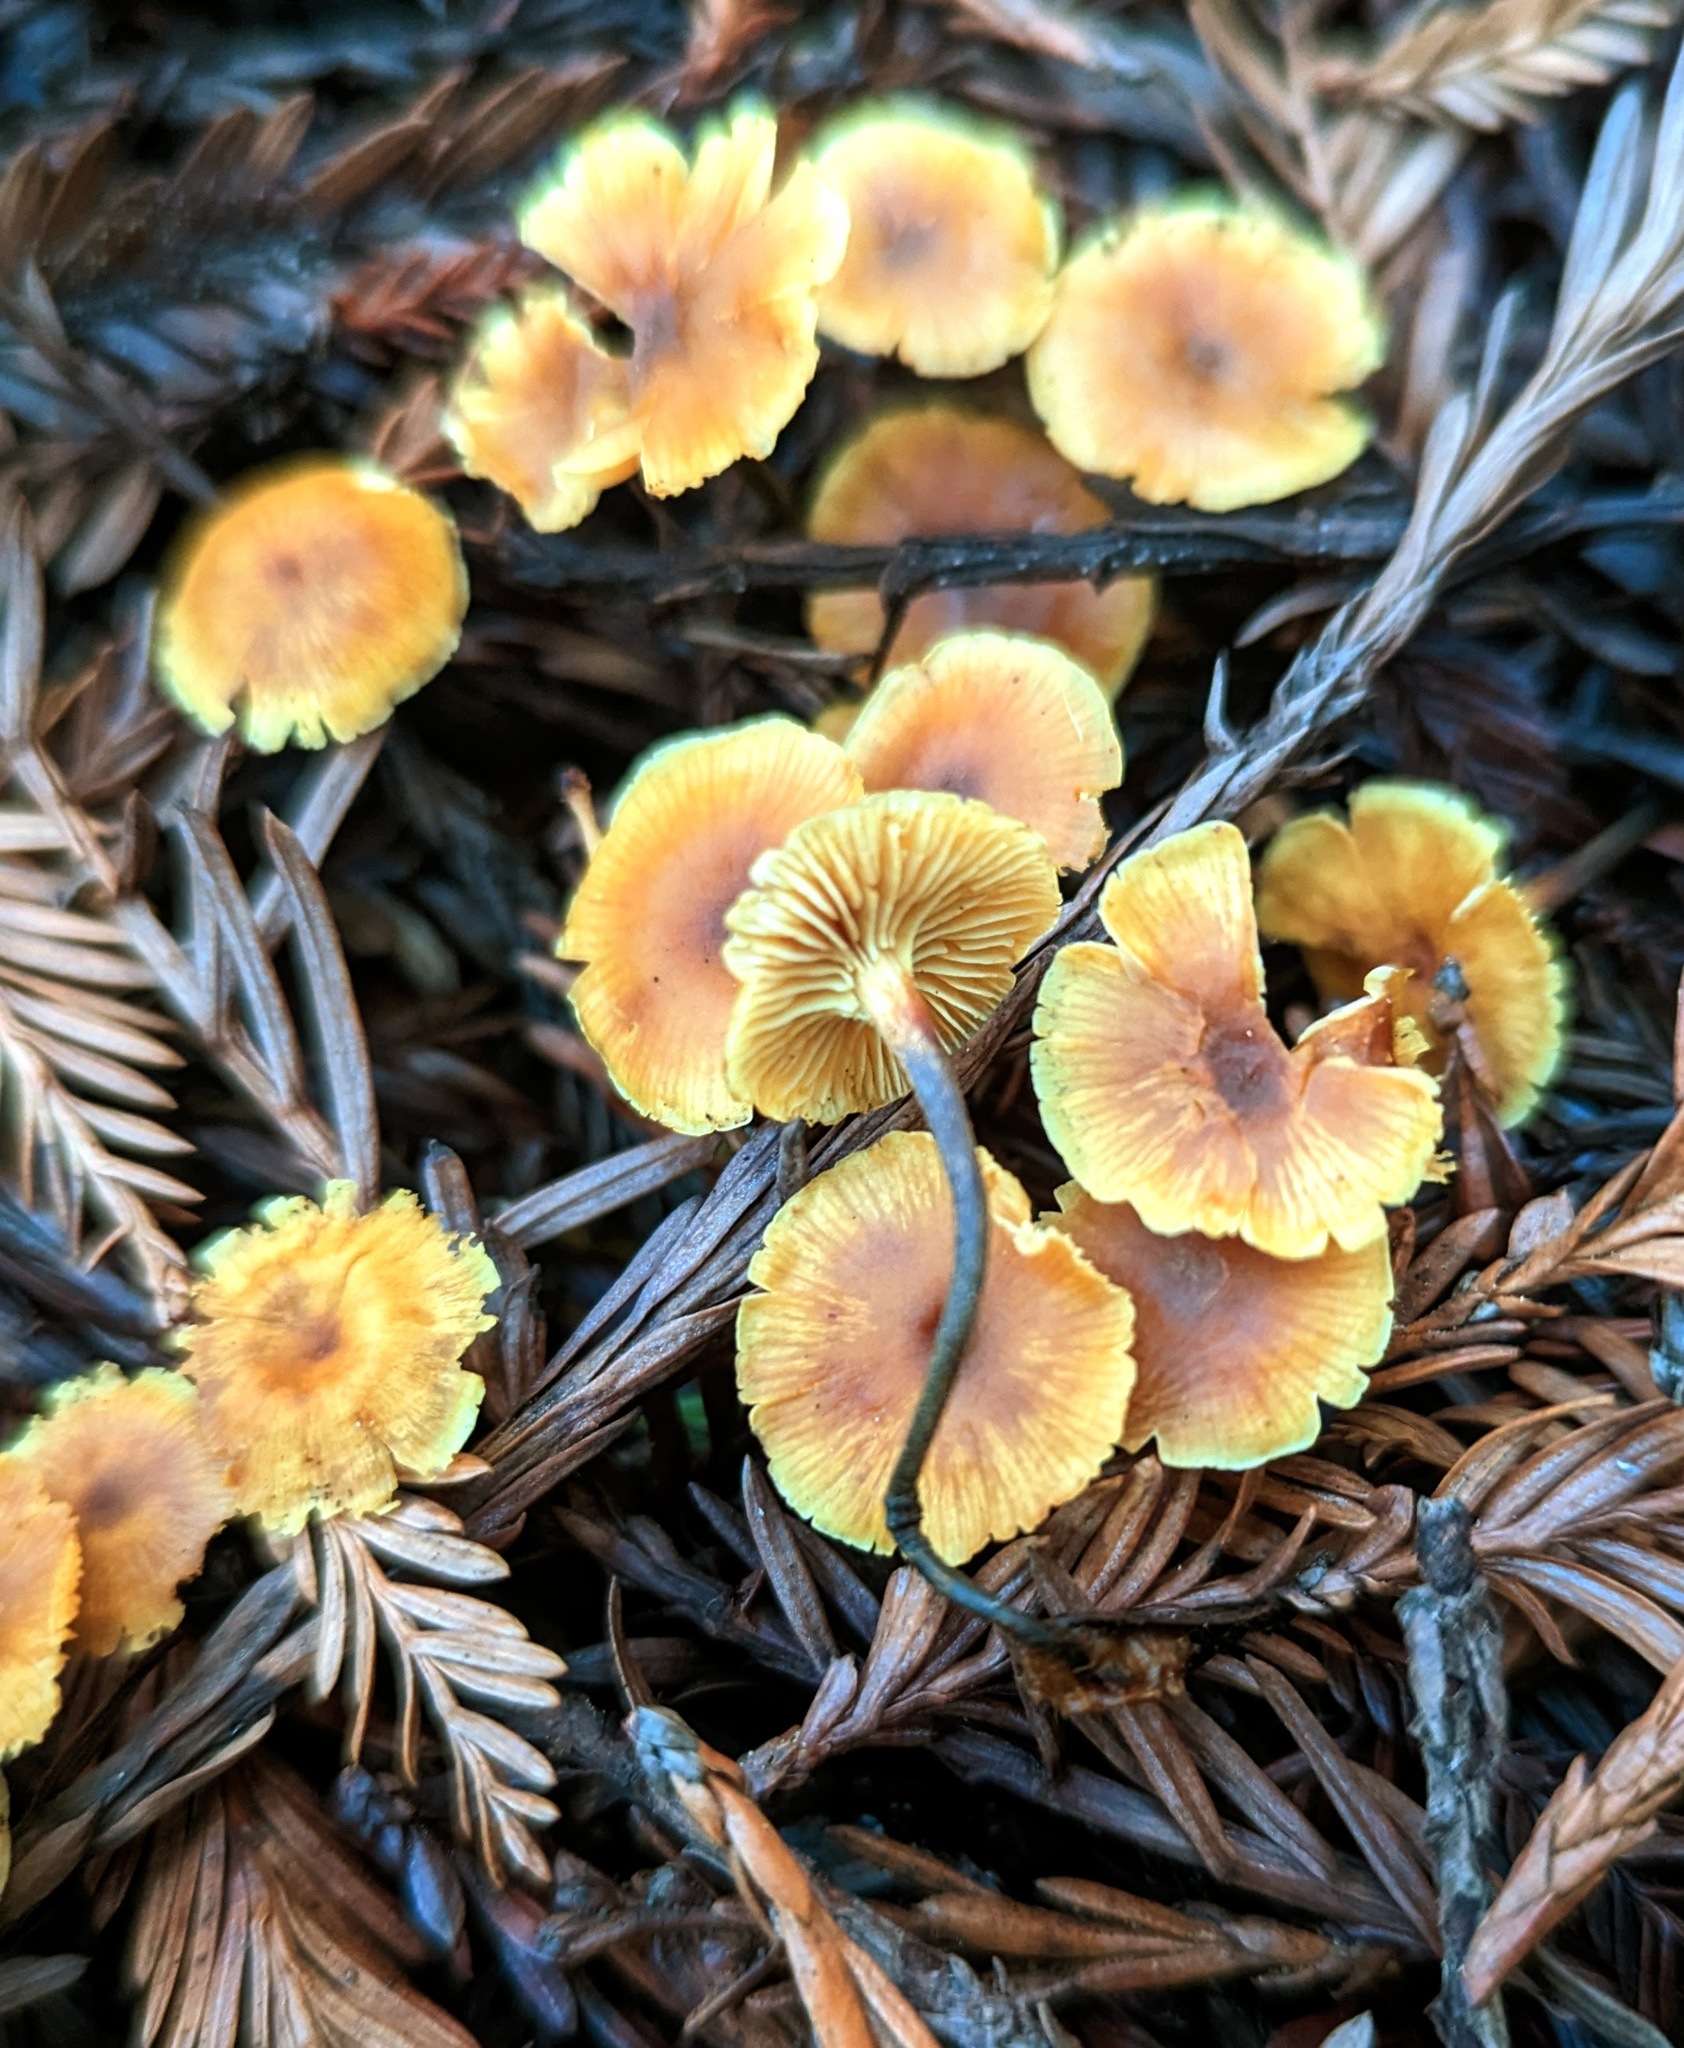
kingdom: Fungi
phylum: Basidiomycota
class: Agaricomycetes
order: Agaricales
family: Mycenaceae
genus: Xeromphalina
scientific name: Xeromphalina cauticinalis
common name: Pinelitter gingertail
